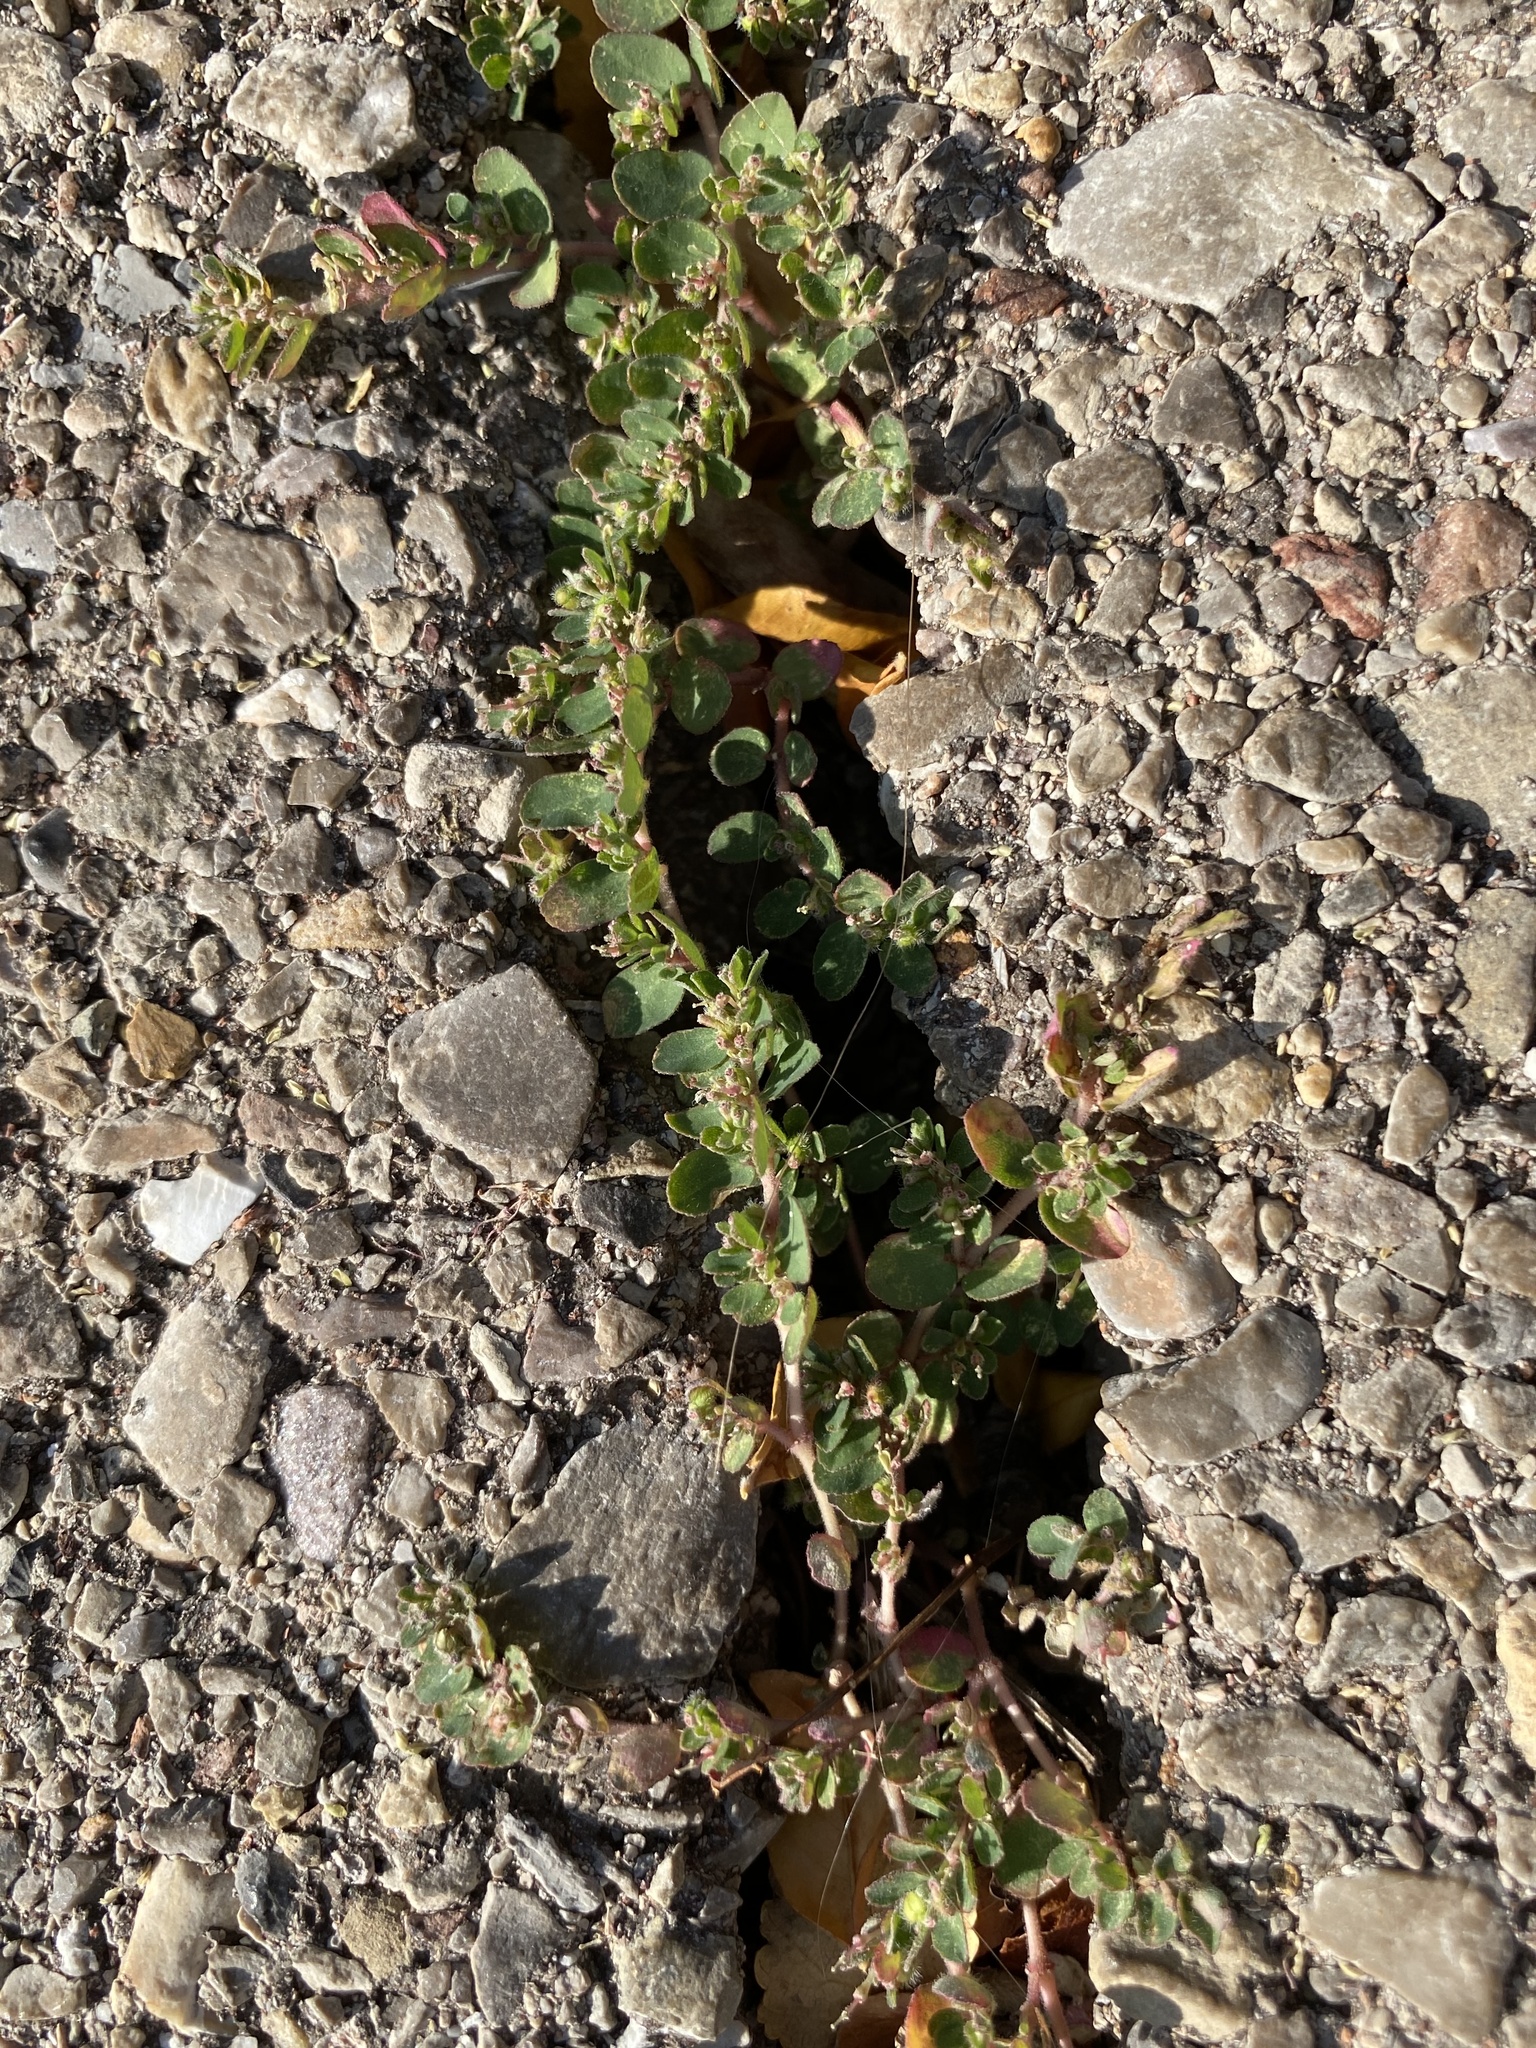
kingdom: Plantae
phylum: Tracheophyta
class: Magnoliopsida
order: Malpighiales
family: Euphorbiaceae
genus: Euphorbia
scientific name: Euphorbia prostrata
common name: Prostrate sandmat
